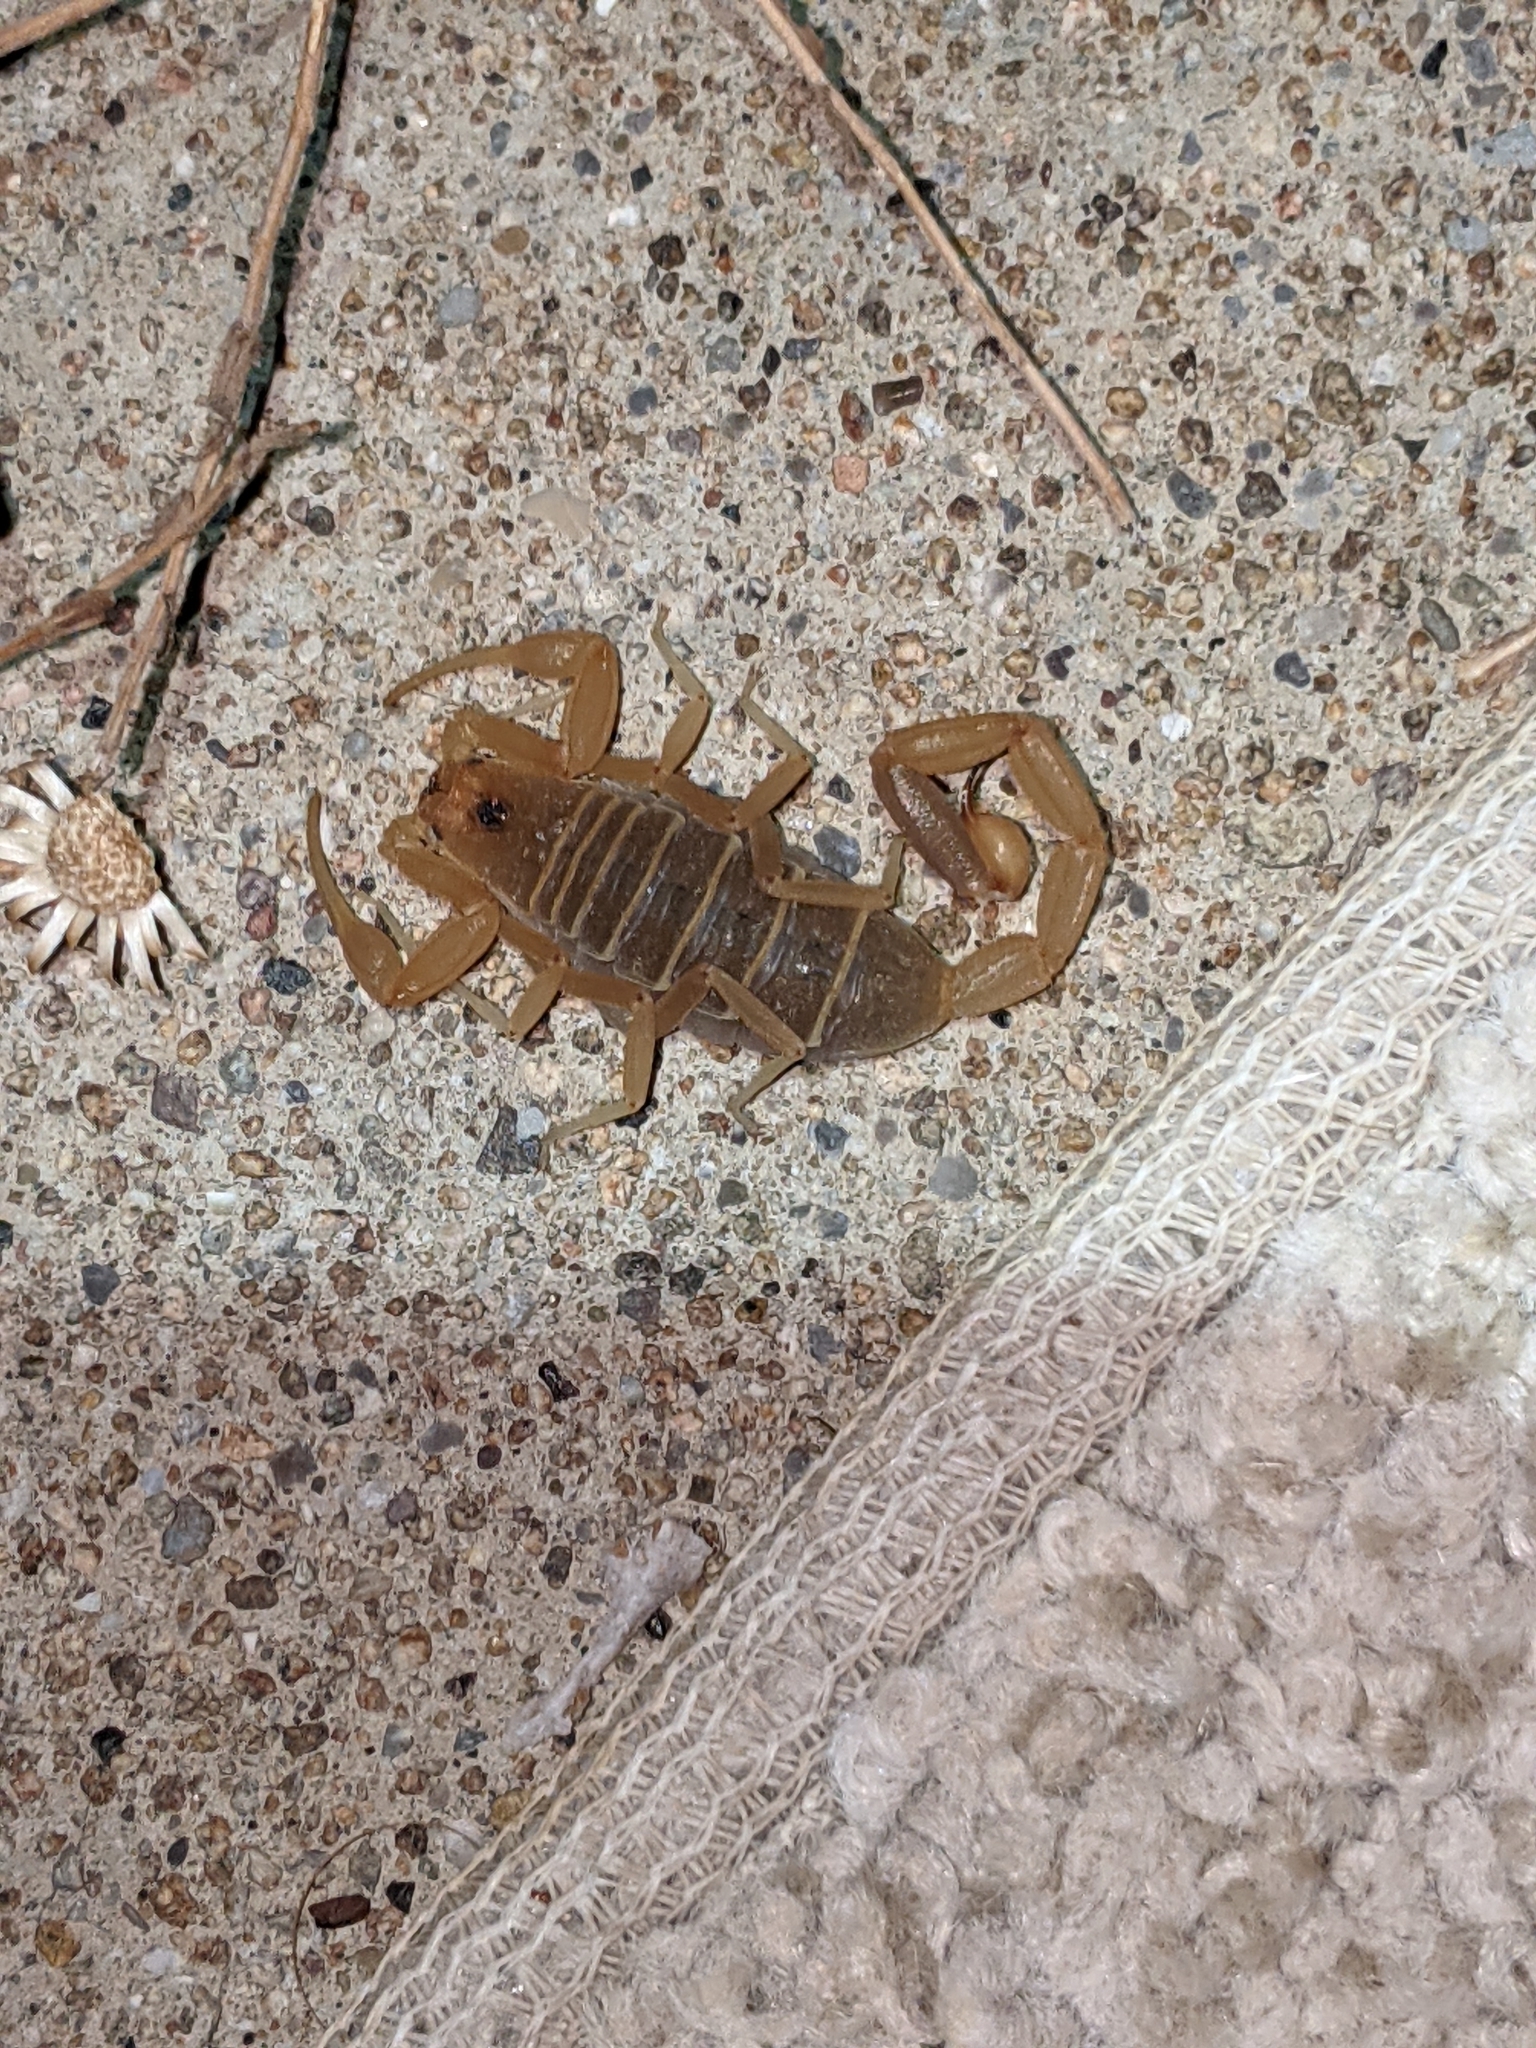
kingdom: Animalia
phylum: Arthropoda
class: Arachnida
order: Scorpiones
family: Buthidae
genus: Centruroides
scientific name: Centruroides vittatus
